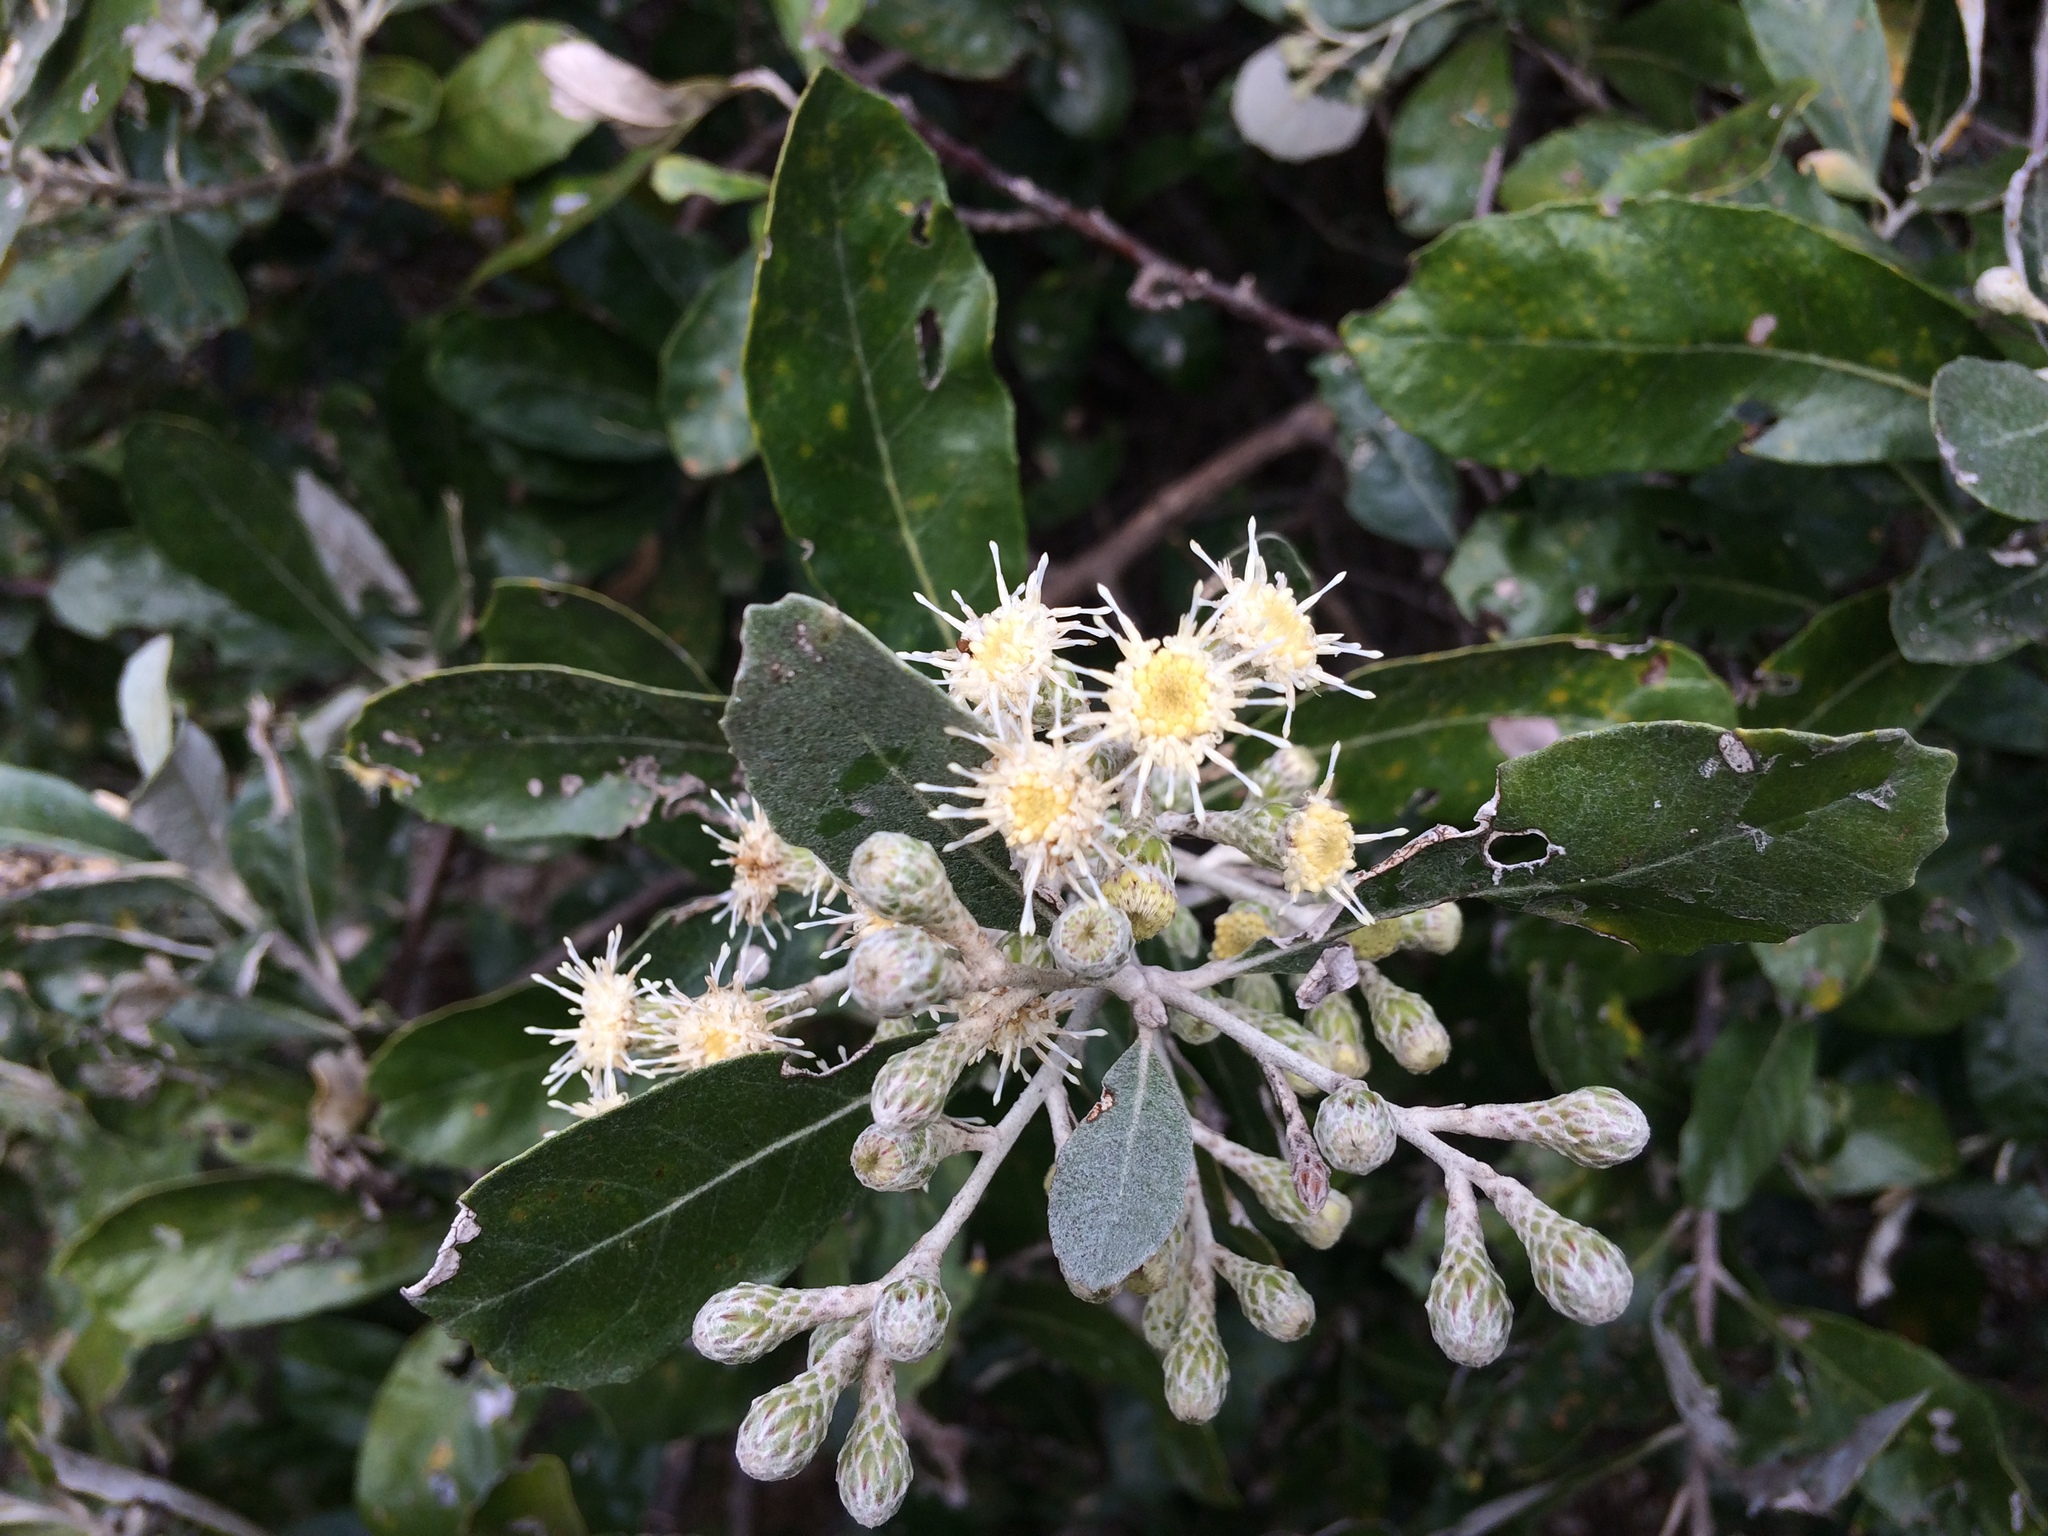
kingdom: Plantae
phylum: Tracheophyta
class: Magnoliopsida
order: Asterales
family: Asteraceae
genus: Brachylaena
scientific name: Brachylaena discolor
